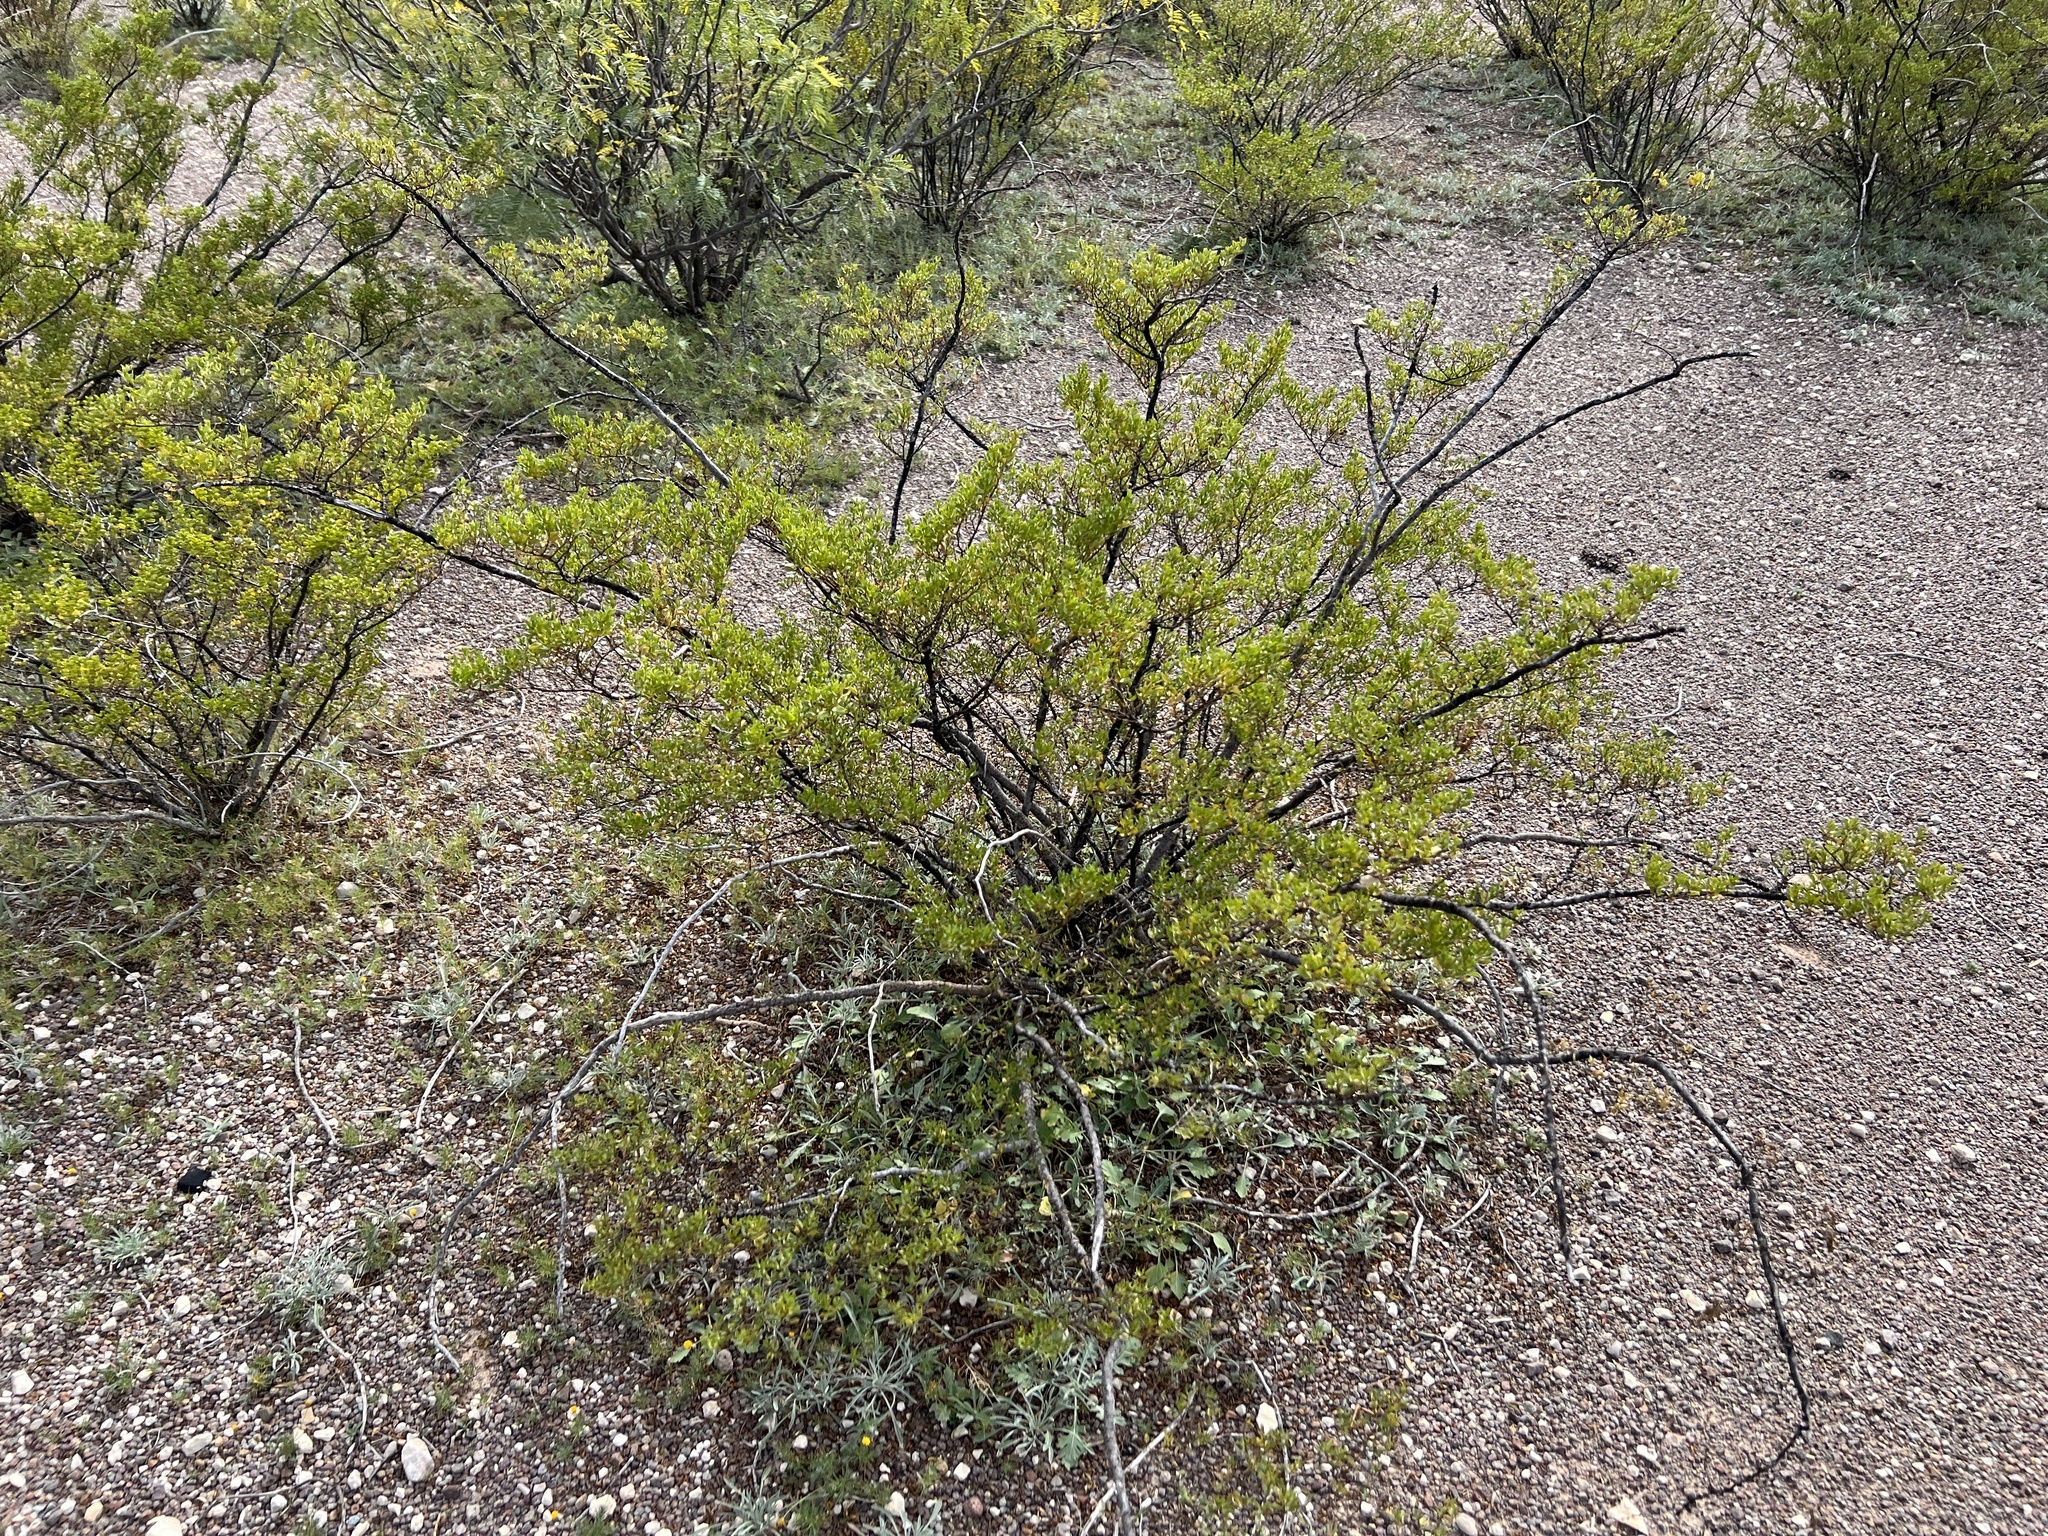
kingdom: Plantae
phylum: Tracheophyta
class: Magnoliopsida
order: Zygophyllales
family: Zygophyllaceae
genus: Larrea
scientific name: Larrea tridentata
